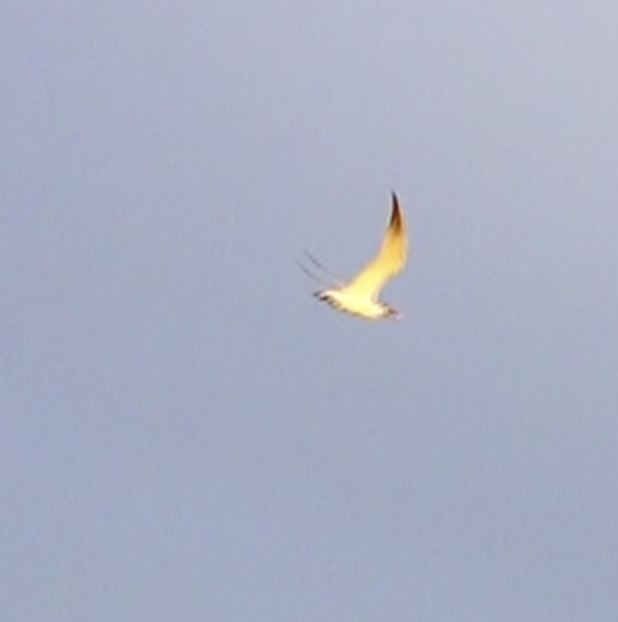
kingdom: Animalia
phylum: Chordata
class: Aves
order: Charadriiformes
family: Laridae
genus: Hydroprogne
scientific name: Hydroprogne caspia
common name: Caspian tern
